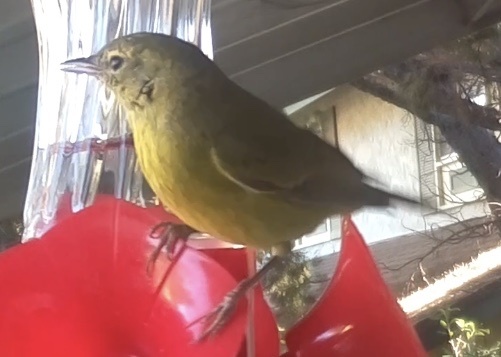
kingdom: Animalia
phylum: Chordata
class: Aves
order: Passeriformes
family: Parulidae
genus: Leiothlypis
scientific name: Leiothlypis celata
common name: Orange-crowned warbler
